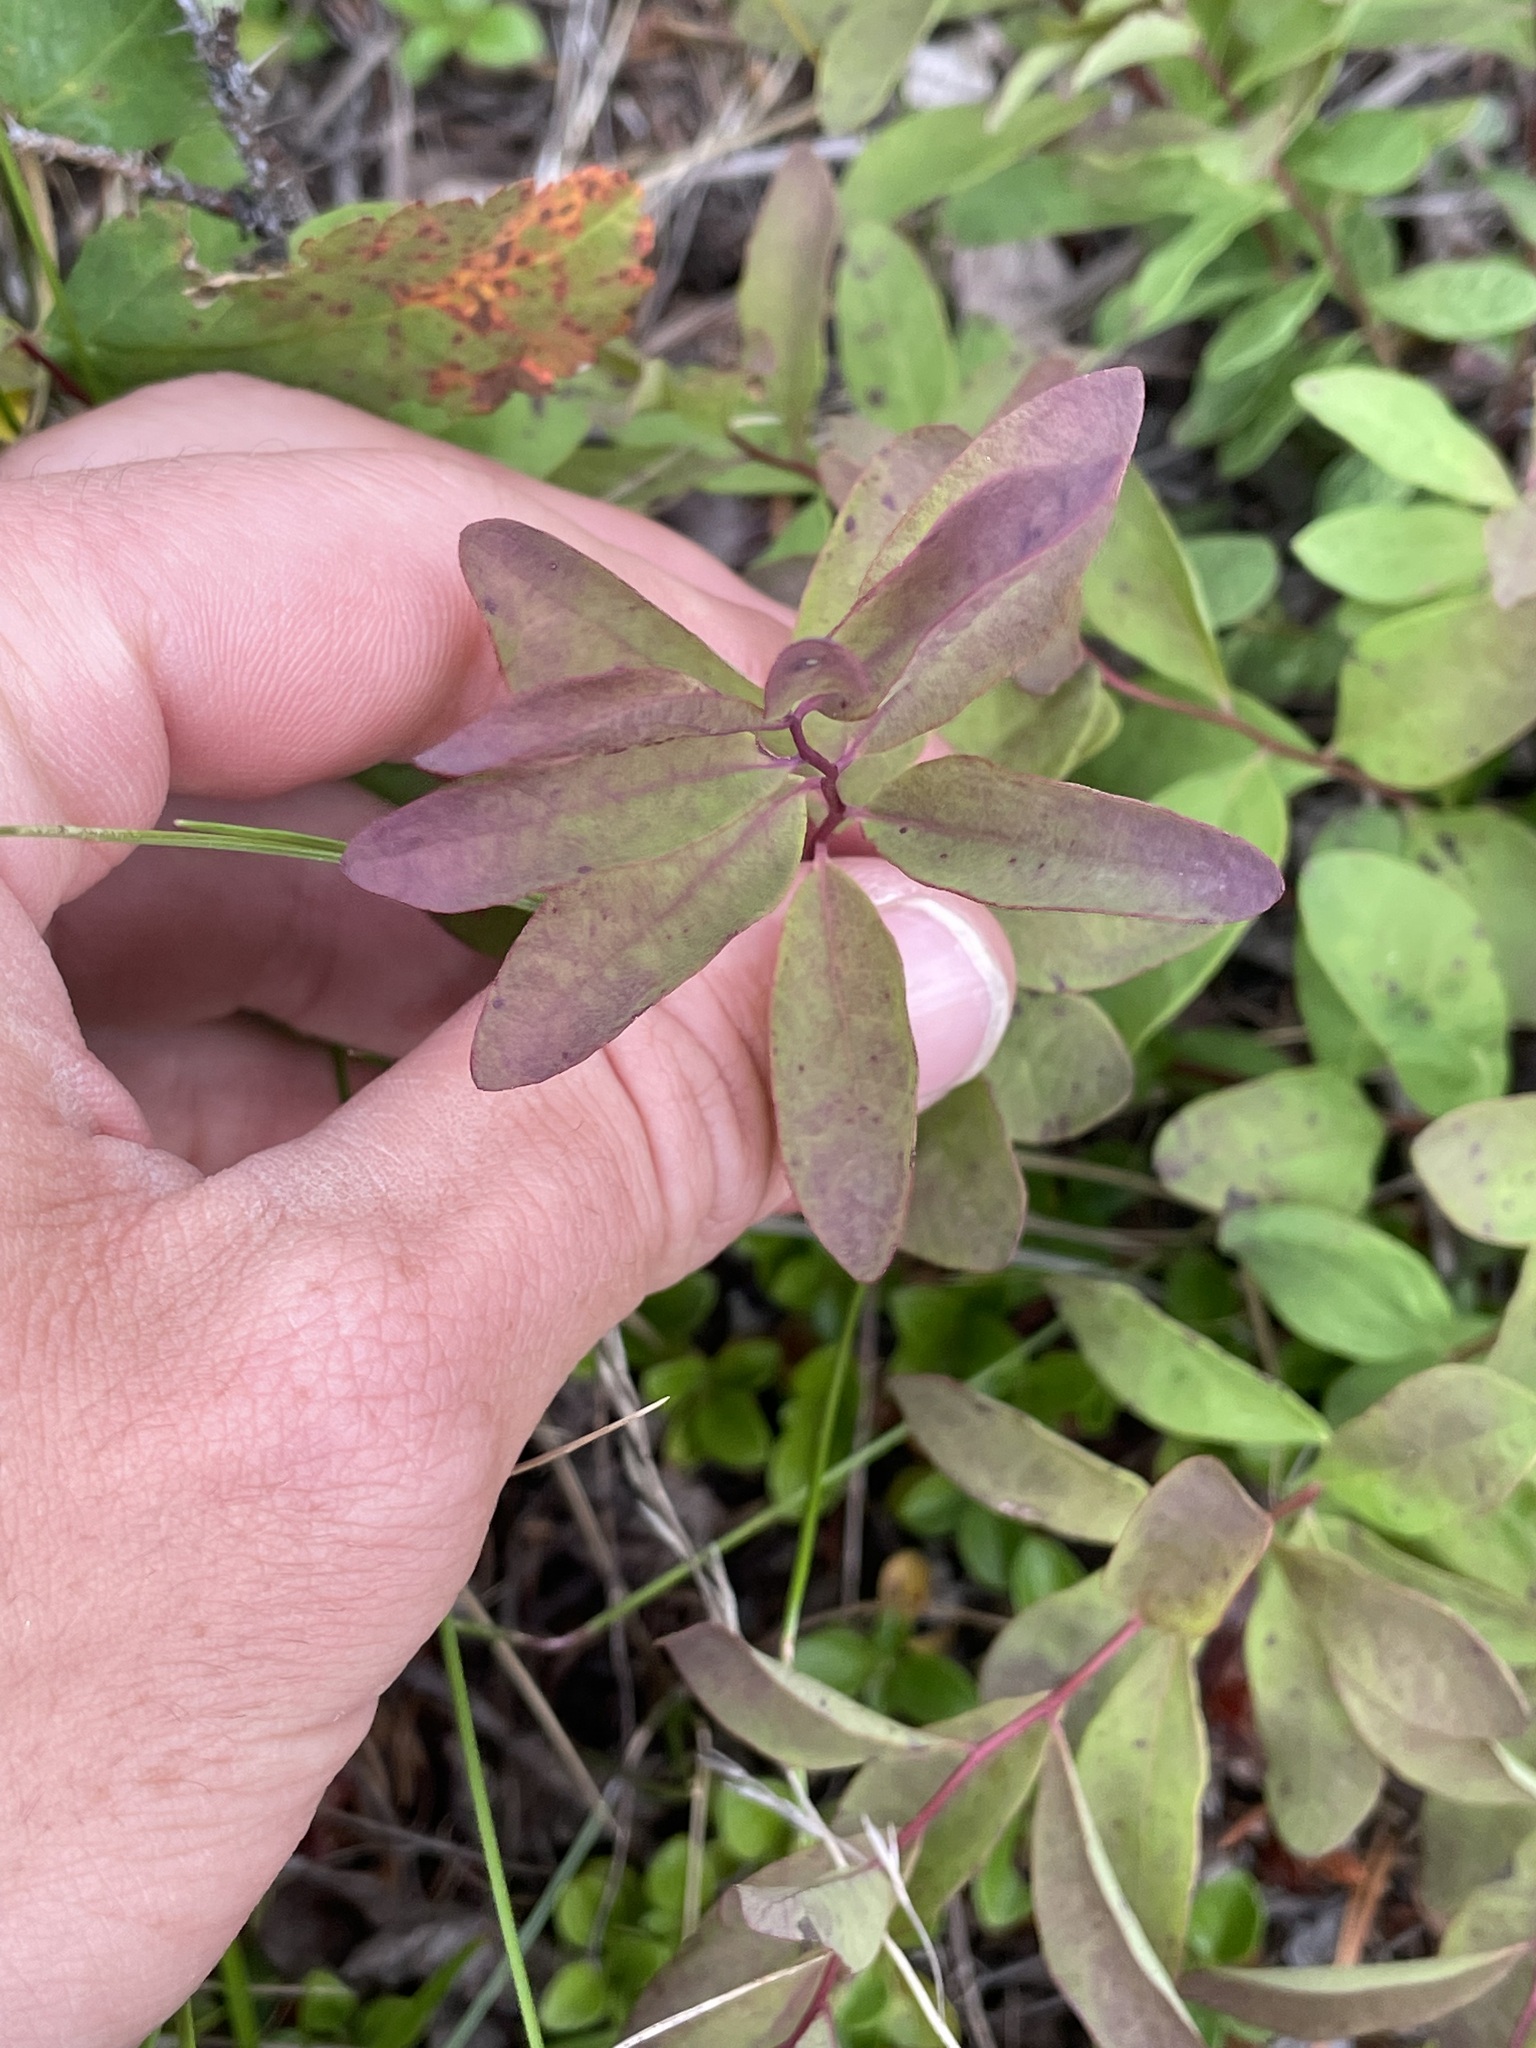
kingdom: Plantae
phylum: Tracheophyta
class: Magnoliopsida
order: Santalales
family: Comandraceae
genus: Geocaulon
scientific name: Geocaulon lividum
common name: Earthberry
